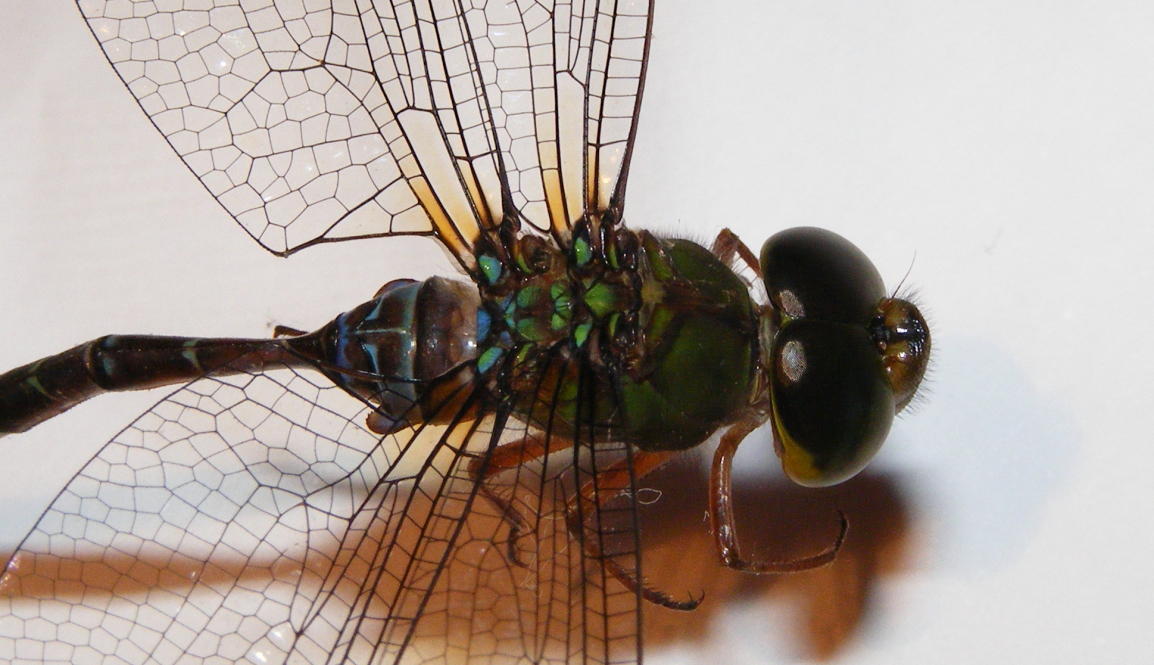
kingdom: Animalia
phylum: Arthropoda
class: Insecta
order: Odonata
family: Aeshnidae
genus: Gynacantha
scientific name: Gynacantha usambarica
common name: Eastern duskhawker
